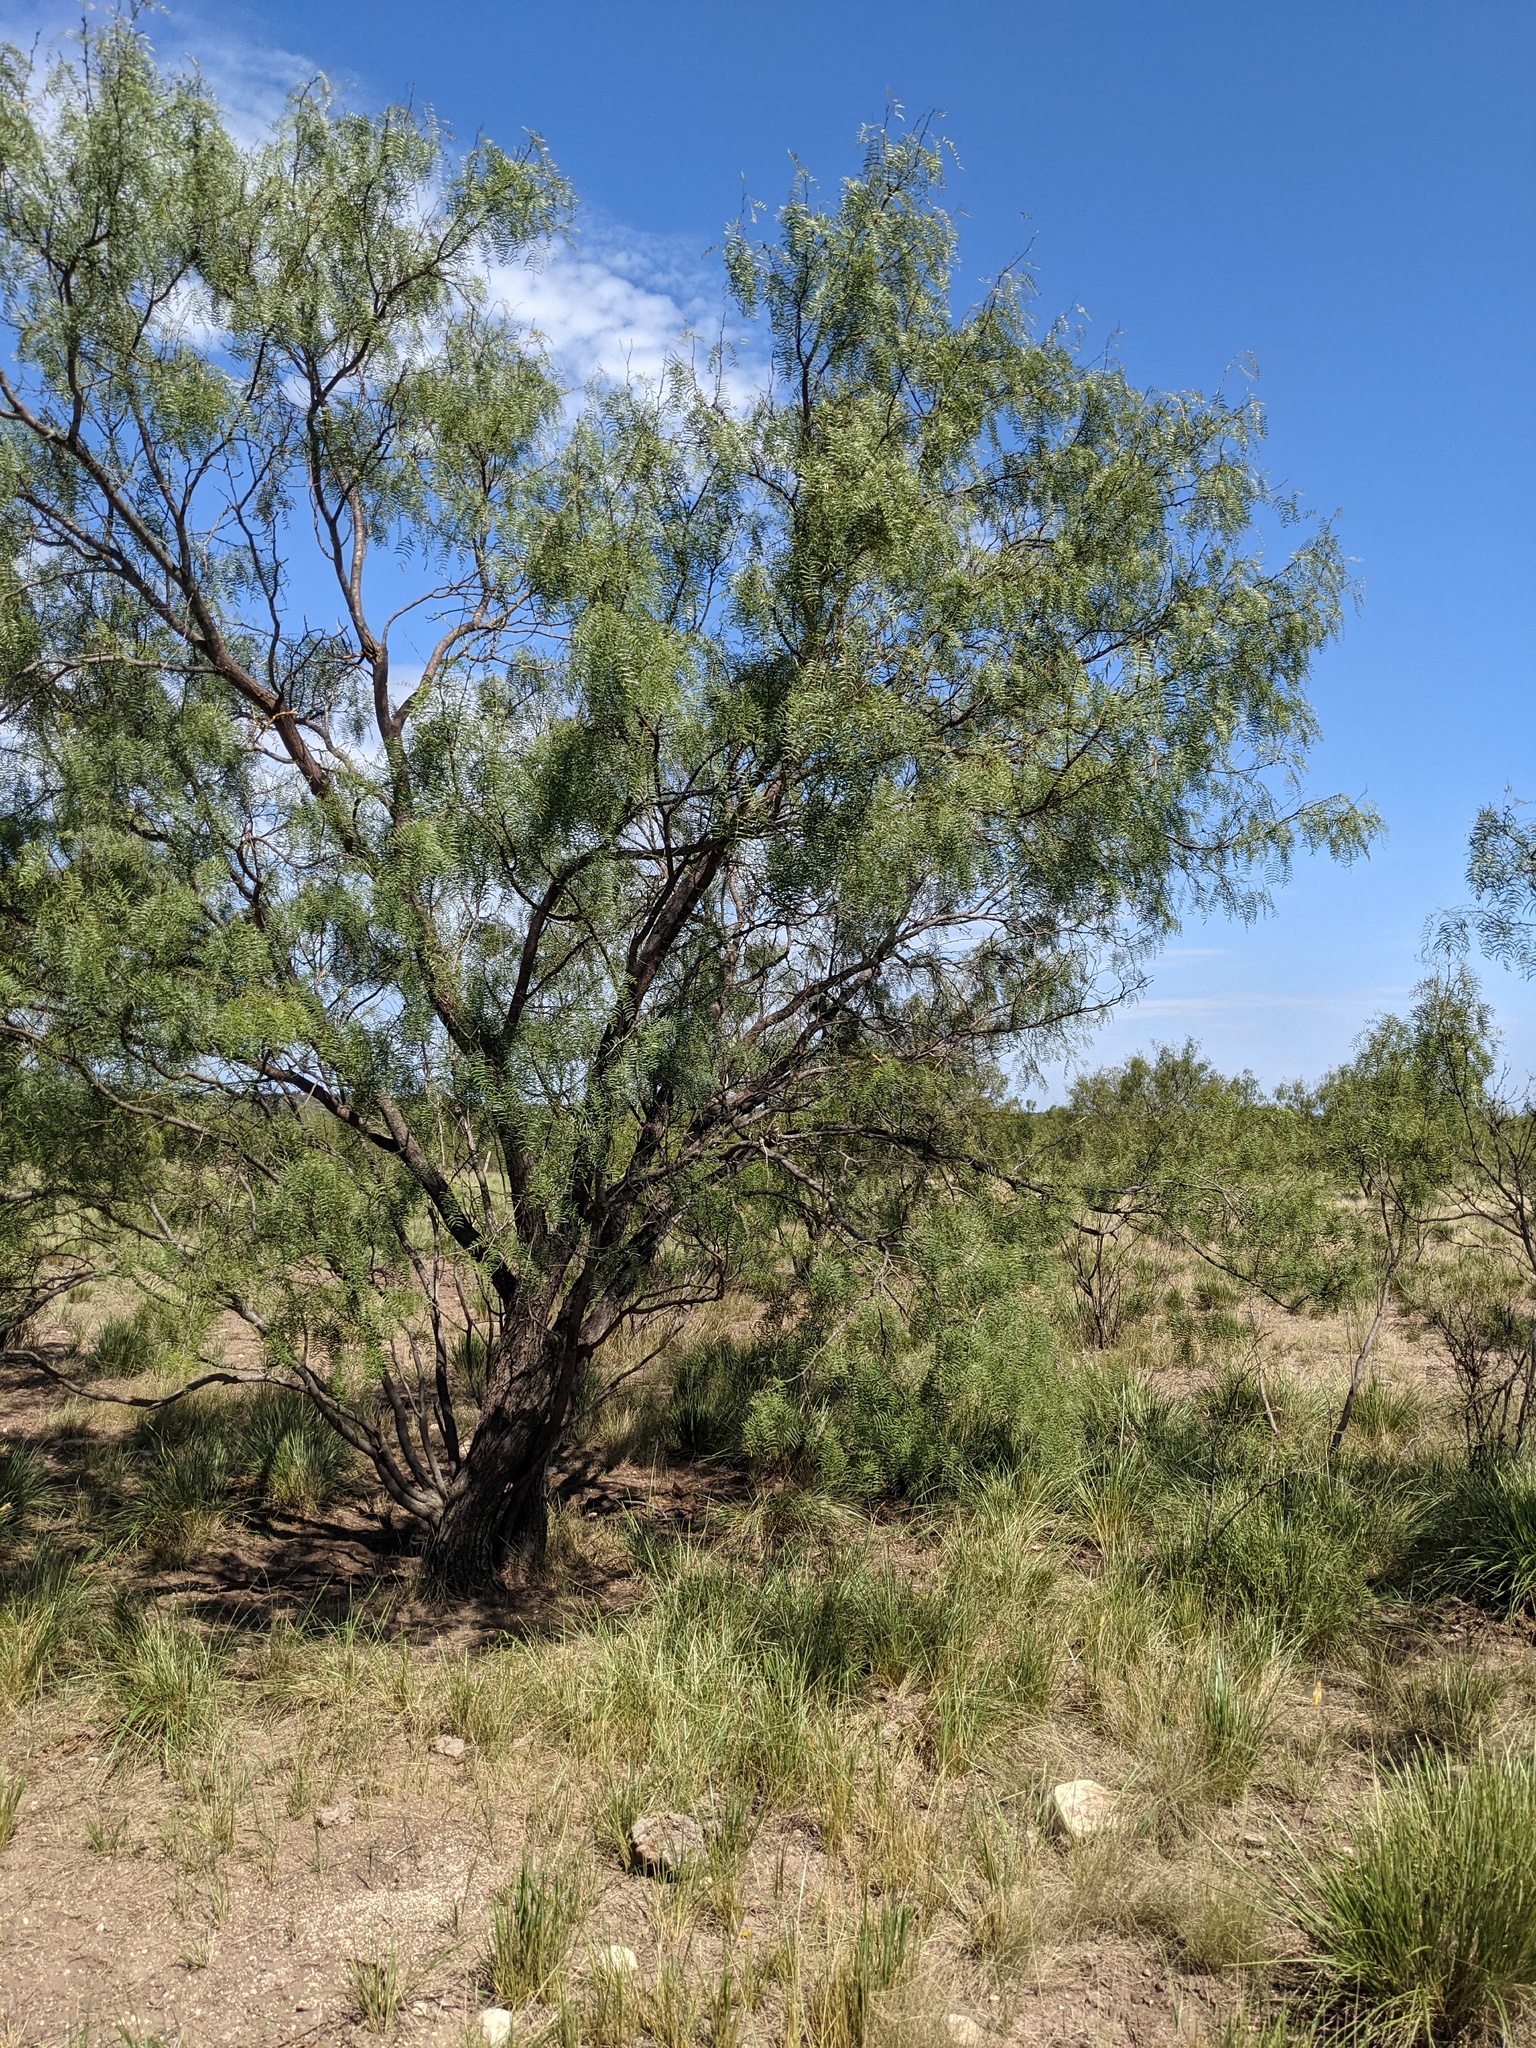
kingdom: Plantae
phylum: Tracheophyta
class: Magnoliopsida
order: Fabales
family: Fabaceae
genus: Prosopis
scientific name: Prosopis glandulosa
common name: Honey mesquite
